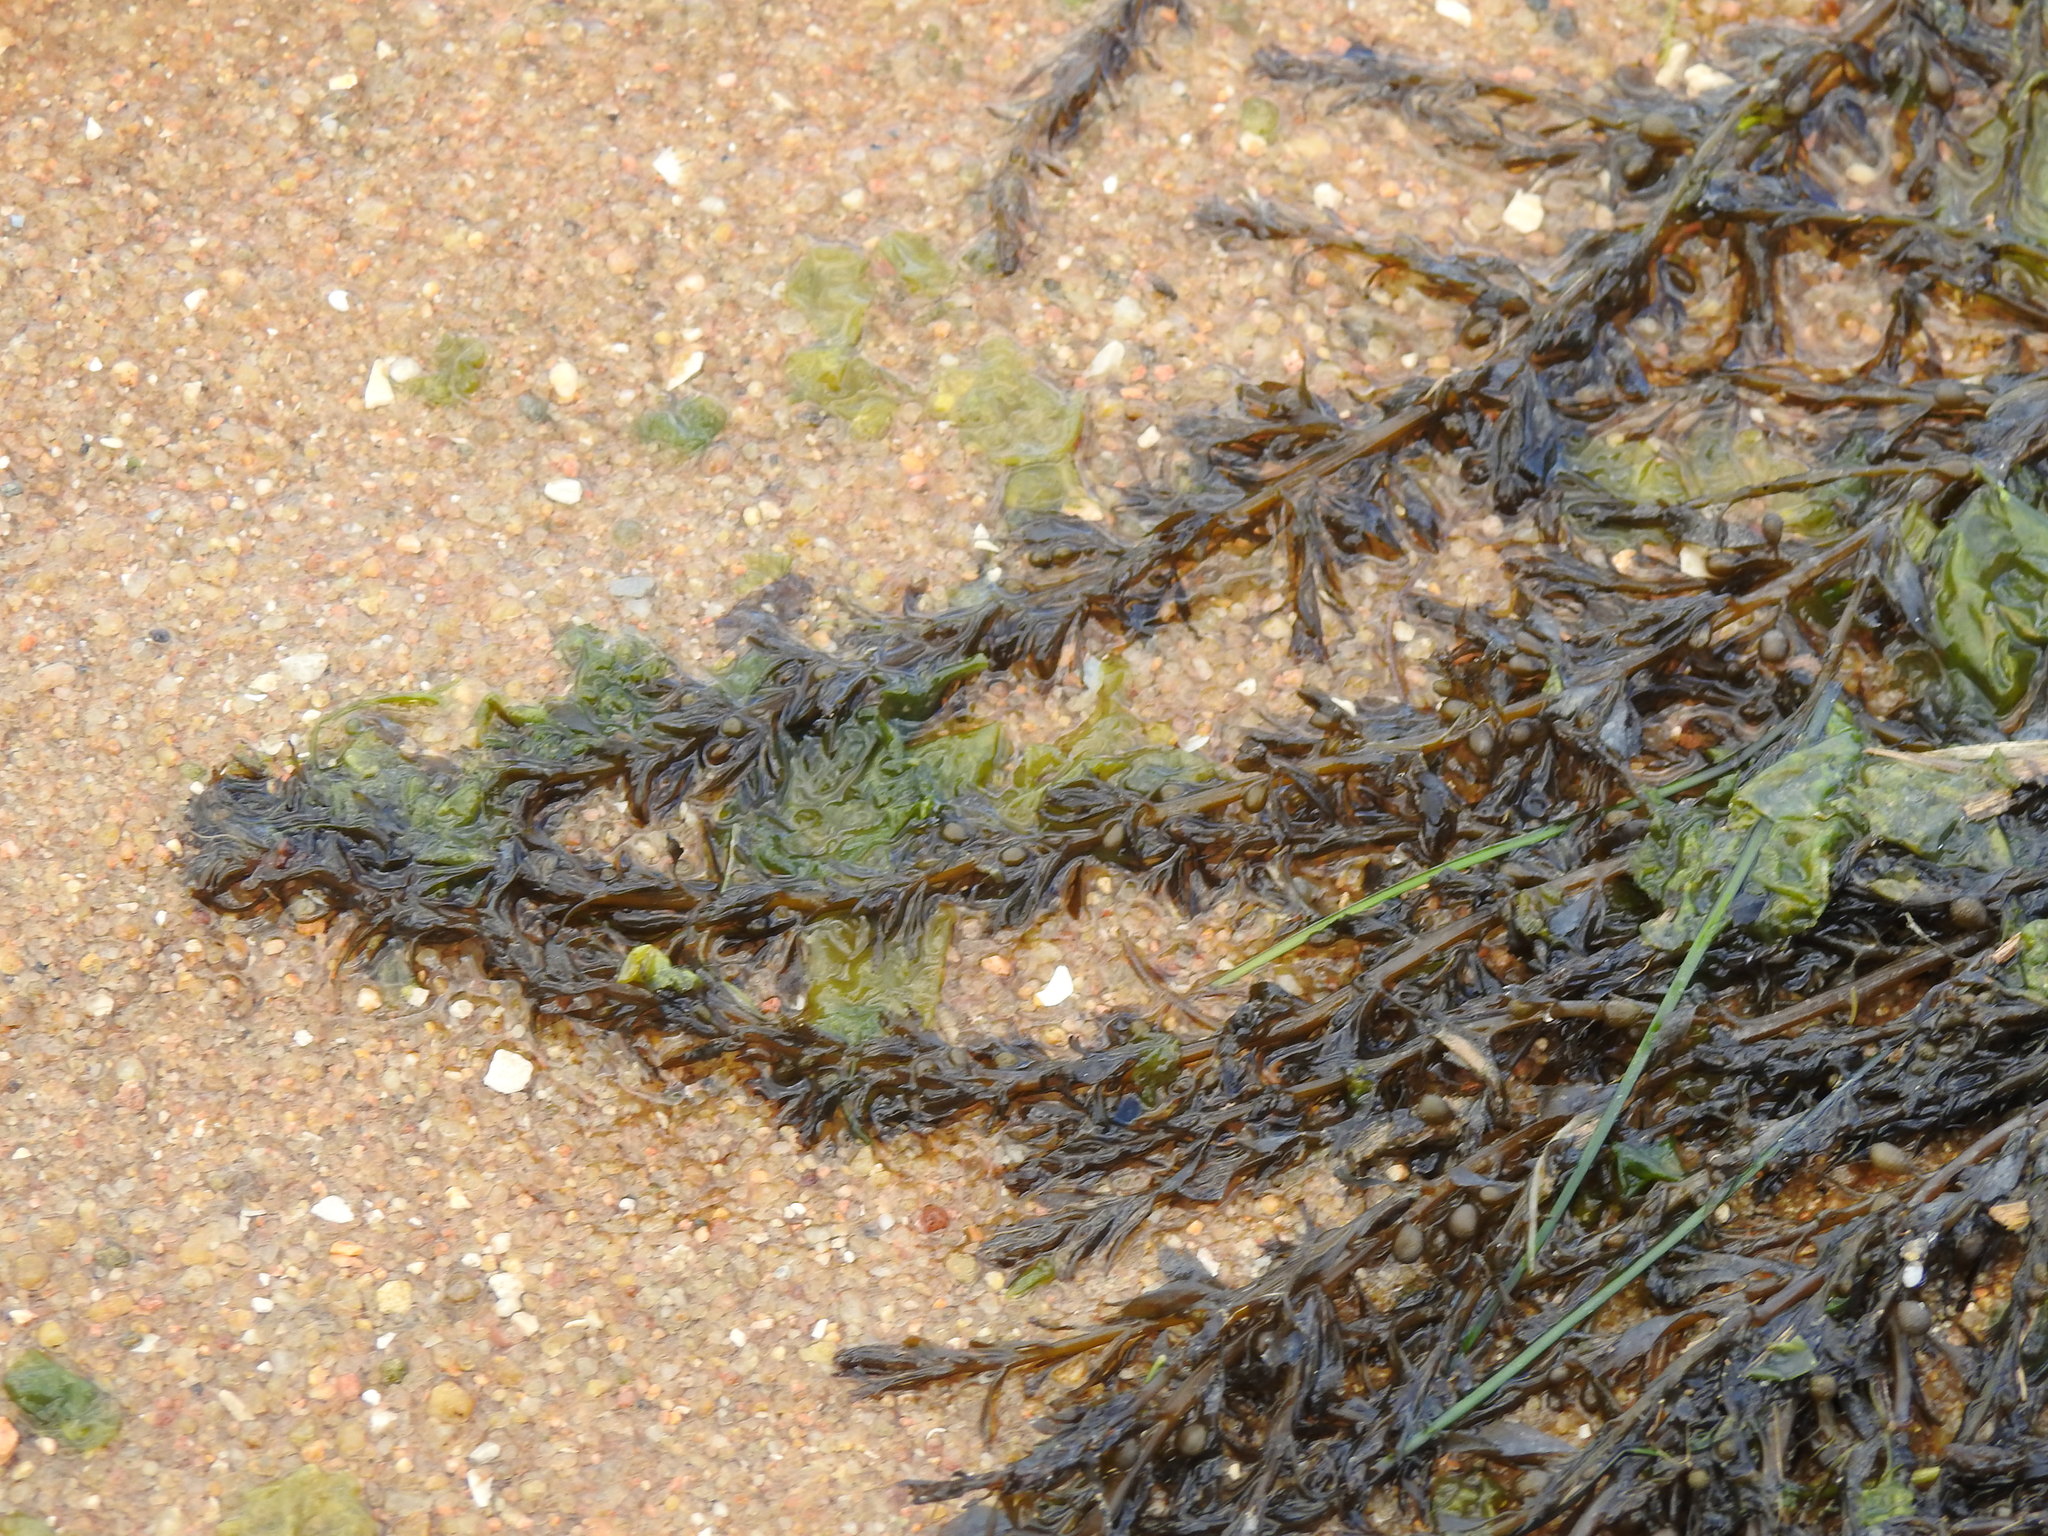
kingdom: Chromista
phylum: Ochrophyta
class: Phaeophyceae
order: Fucales
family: Sargassaceae
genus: Sargassum
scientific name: Sargassum muticum
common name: Japweed
